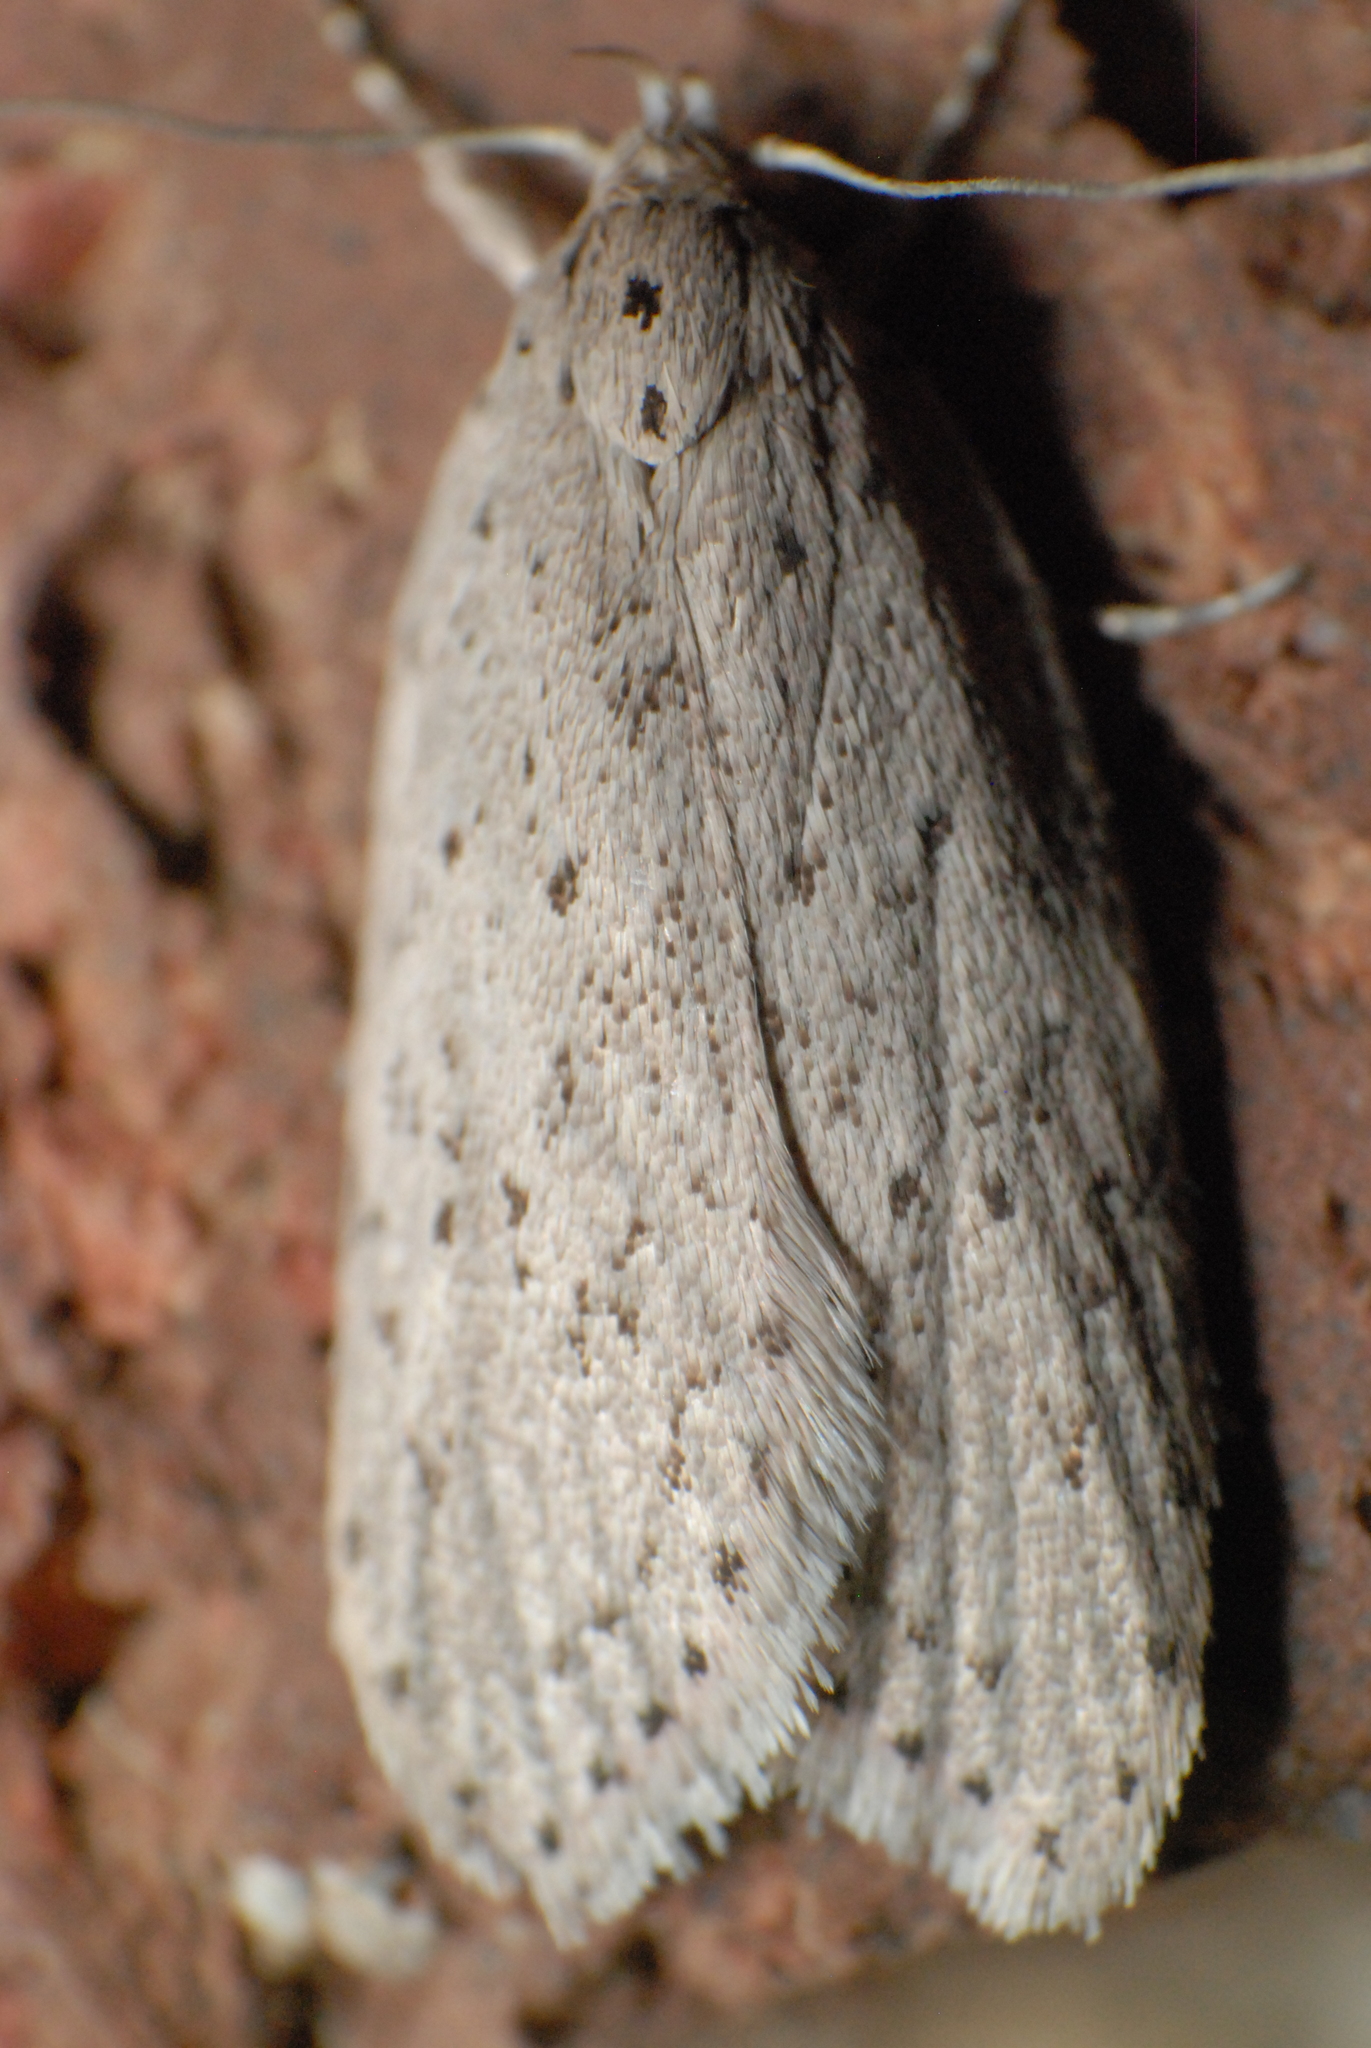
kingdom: Animalia
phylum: Arthropoda
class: Insecta
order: Lepidoptera
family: Oecophoridae
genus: Stictochila
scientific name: Stictochila myriospila
